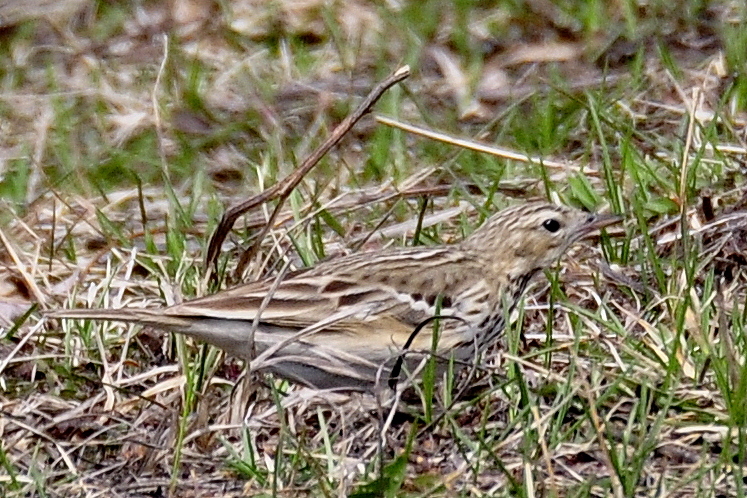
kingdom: Animalia
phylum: Chordata
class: Aves
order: Passeriformes
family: Motacillidae
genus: Anthus
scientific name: Anthus trivialis
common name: Tree pipit
